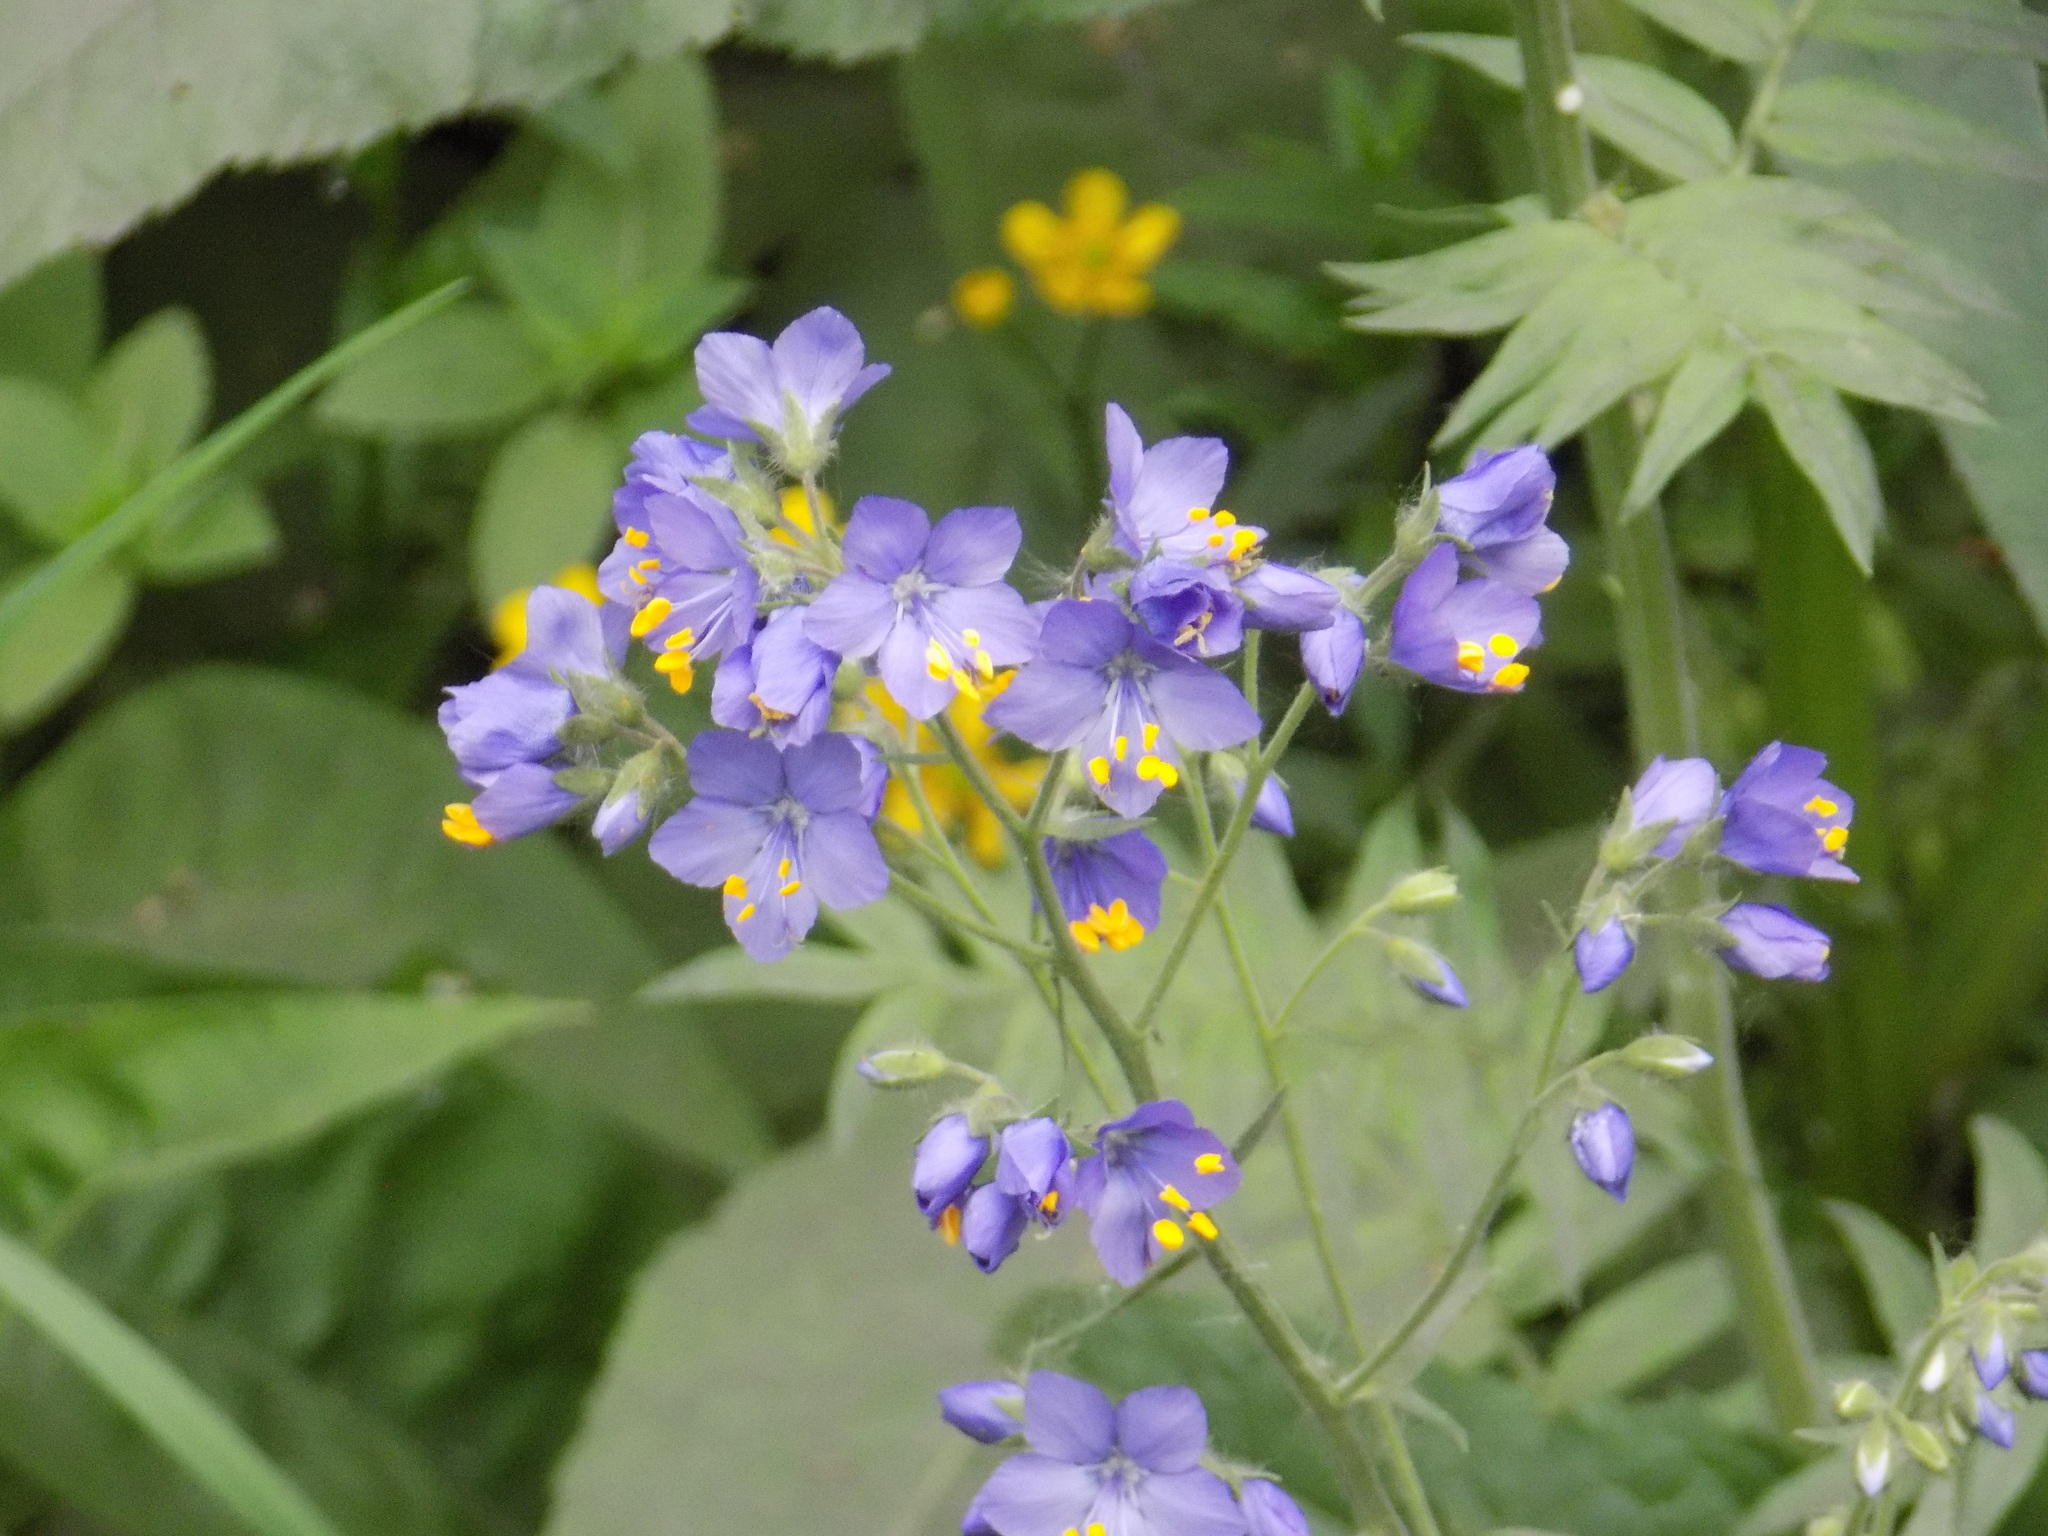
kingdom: Plantae
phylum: Tracheophyta
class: Magnoliopsida
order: Ericales
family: Polemoniaceae
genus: Polemonium
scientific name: Polemonium caeruleum
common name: Jacob's-ladder
